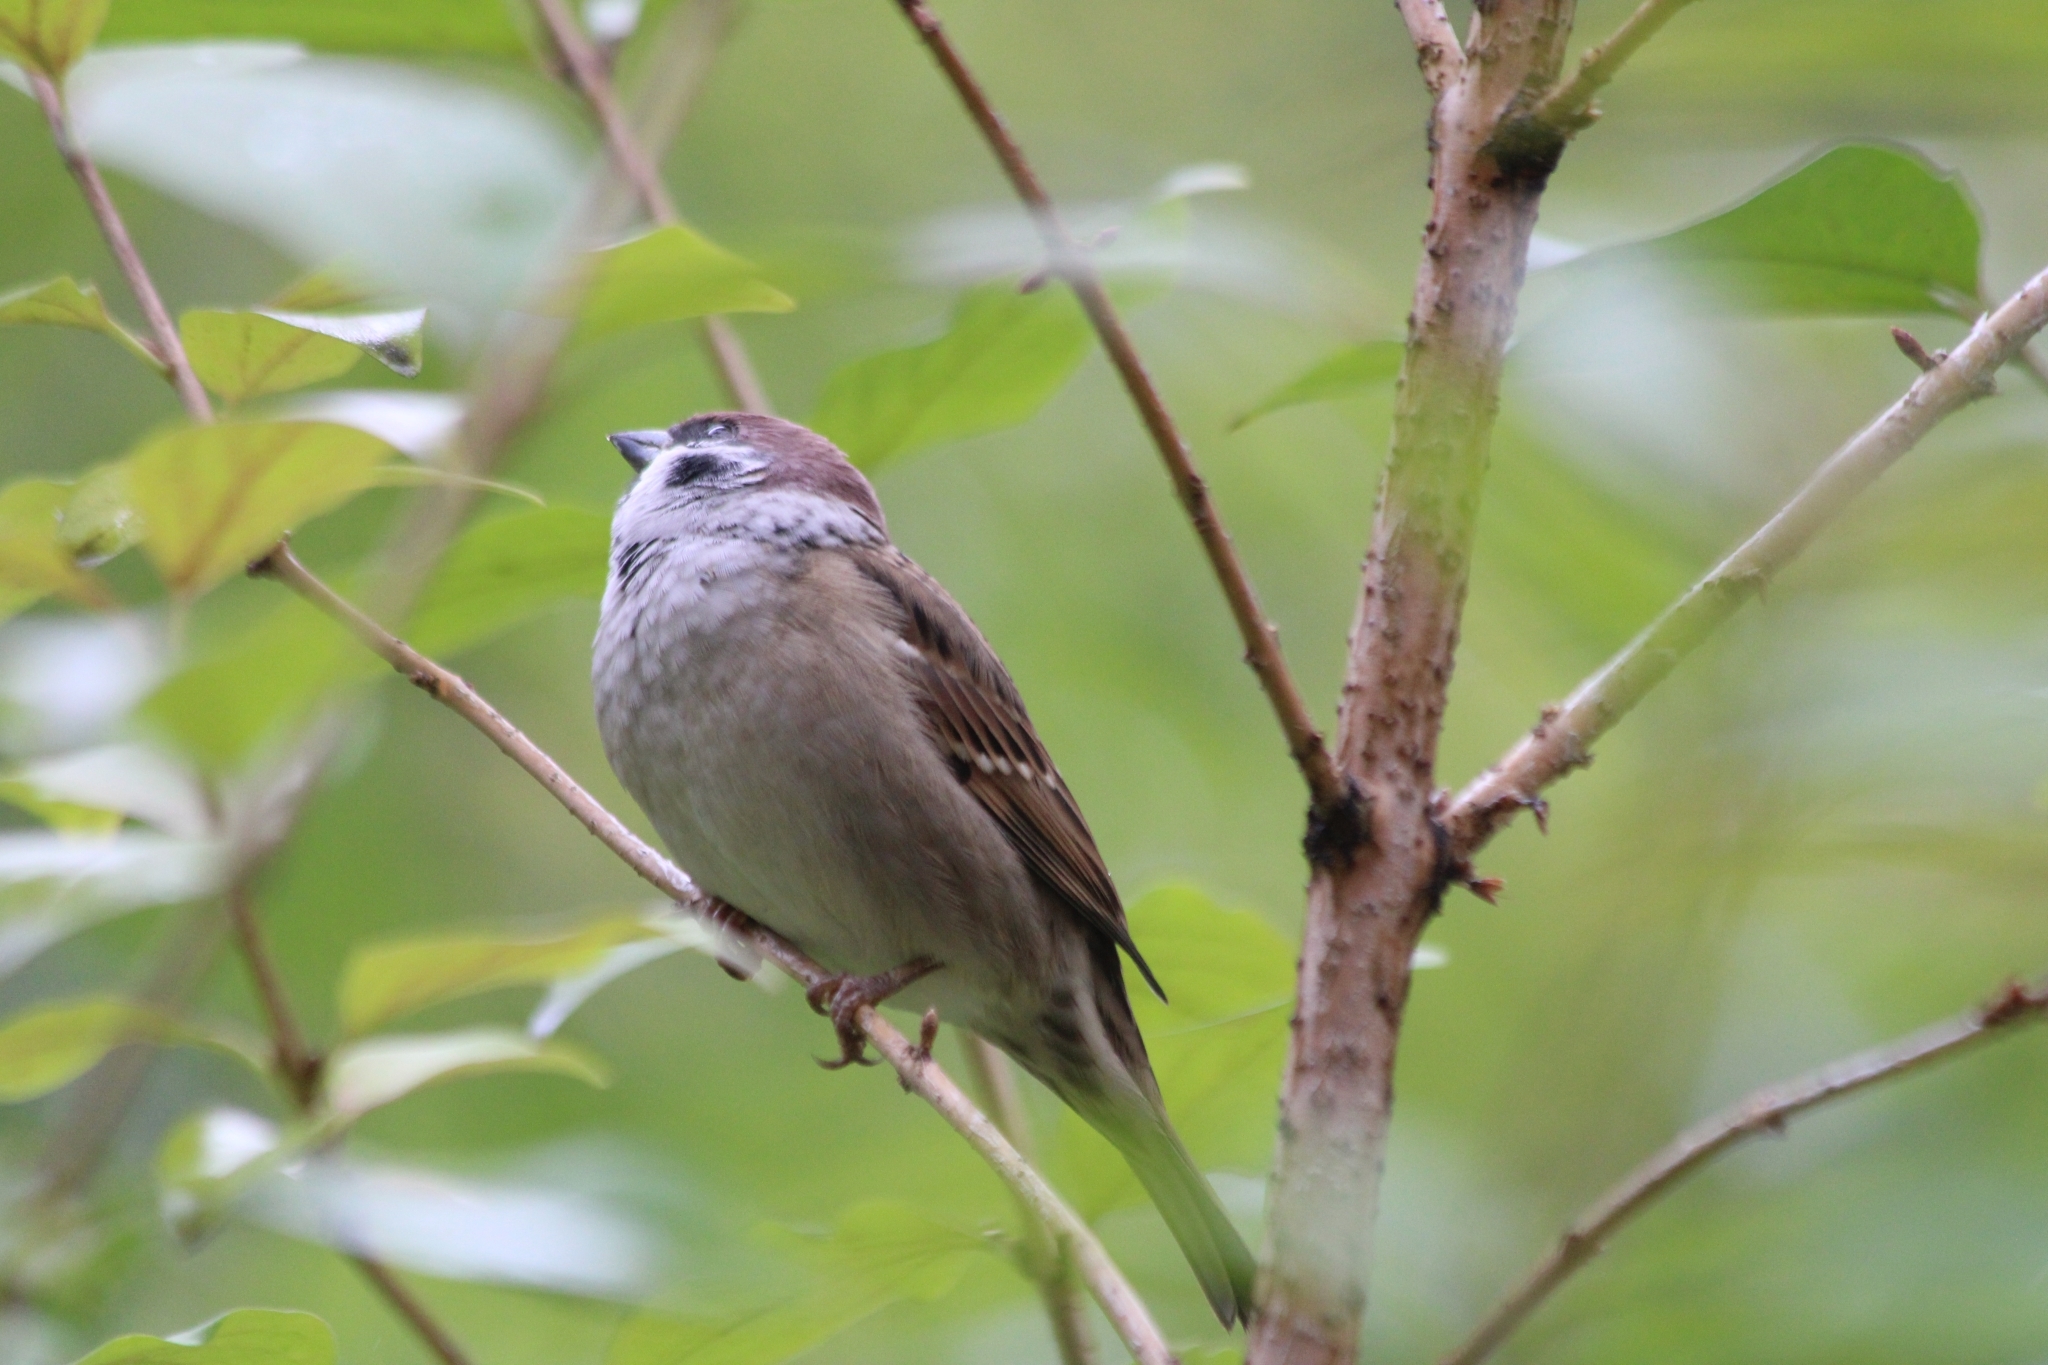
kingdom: Animalia
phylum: Chordata
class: Aves
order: Passeriformes
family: Passeridae
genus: Passer
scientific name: Passer montanus
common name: Eurasian tree sparrow
